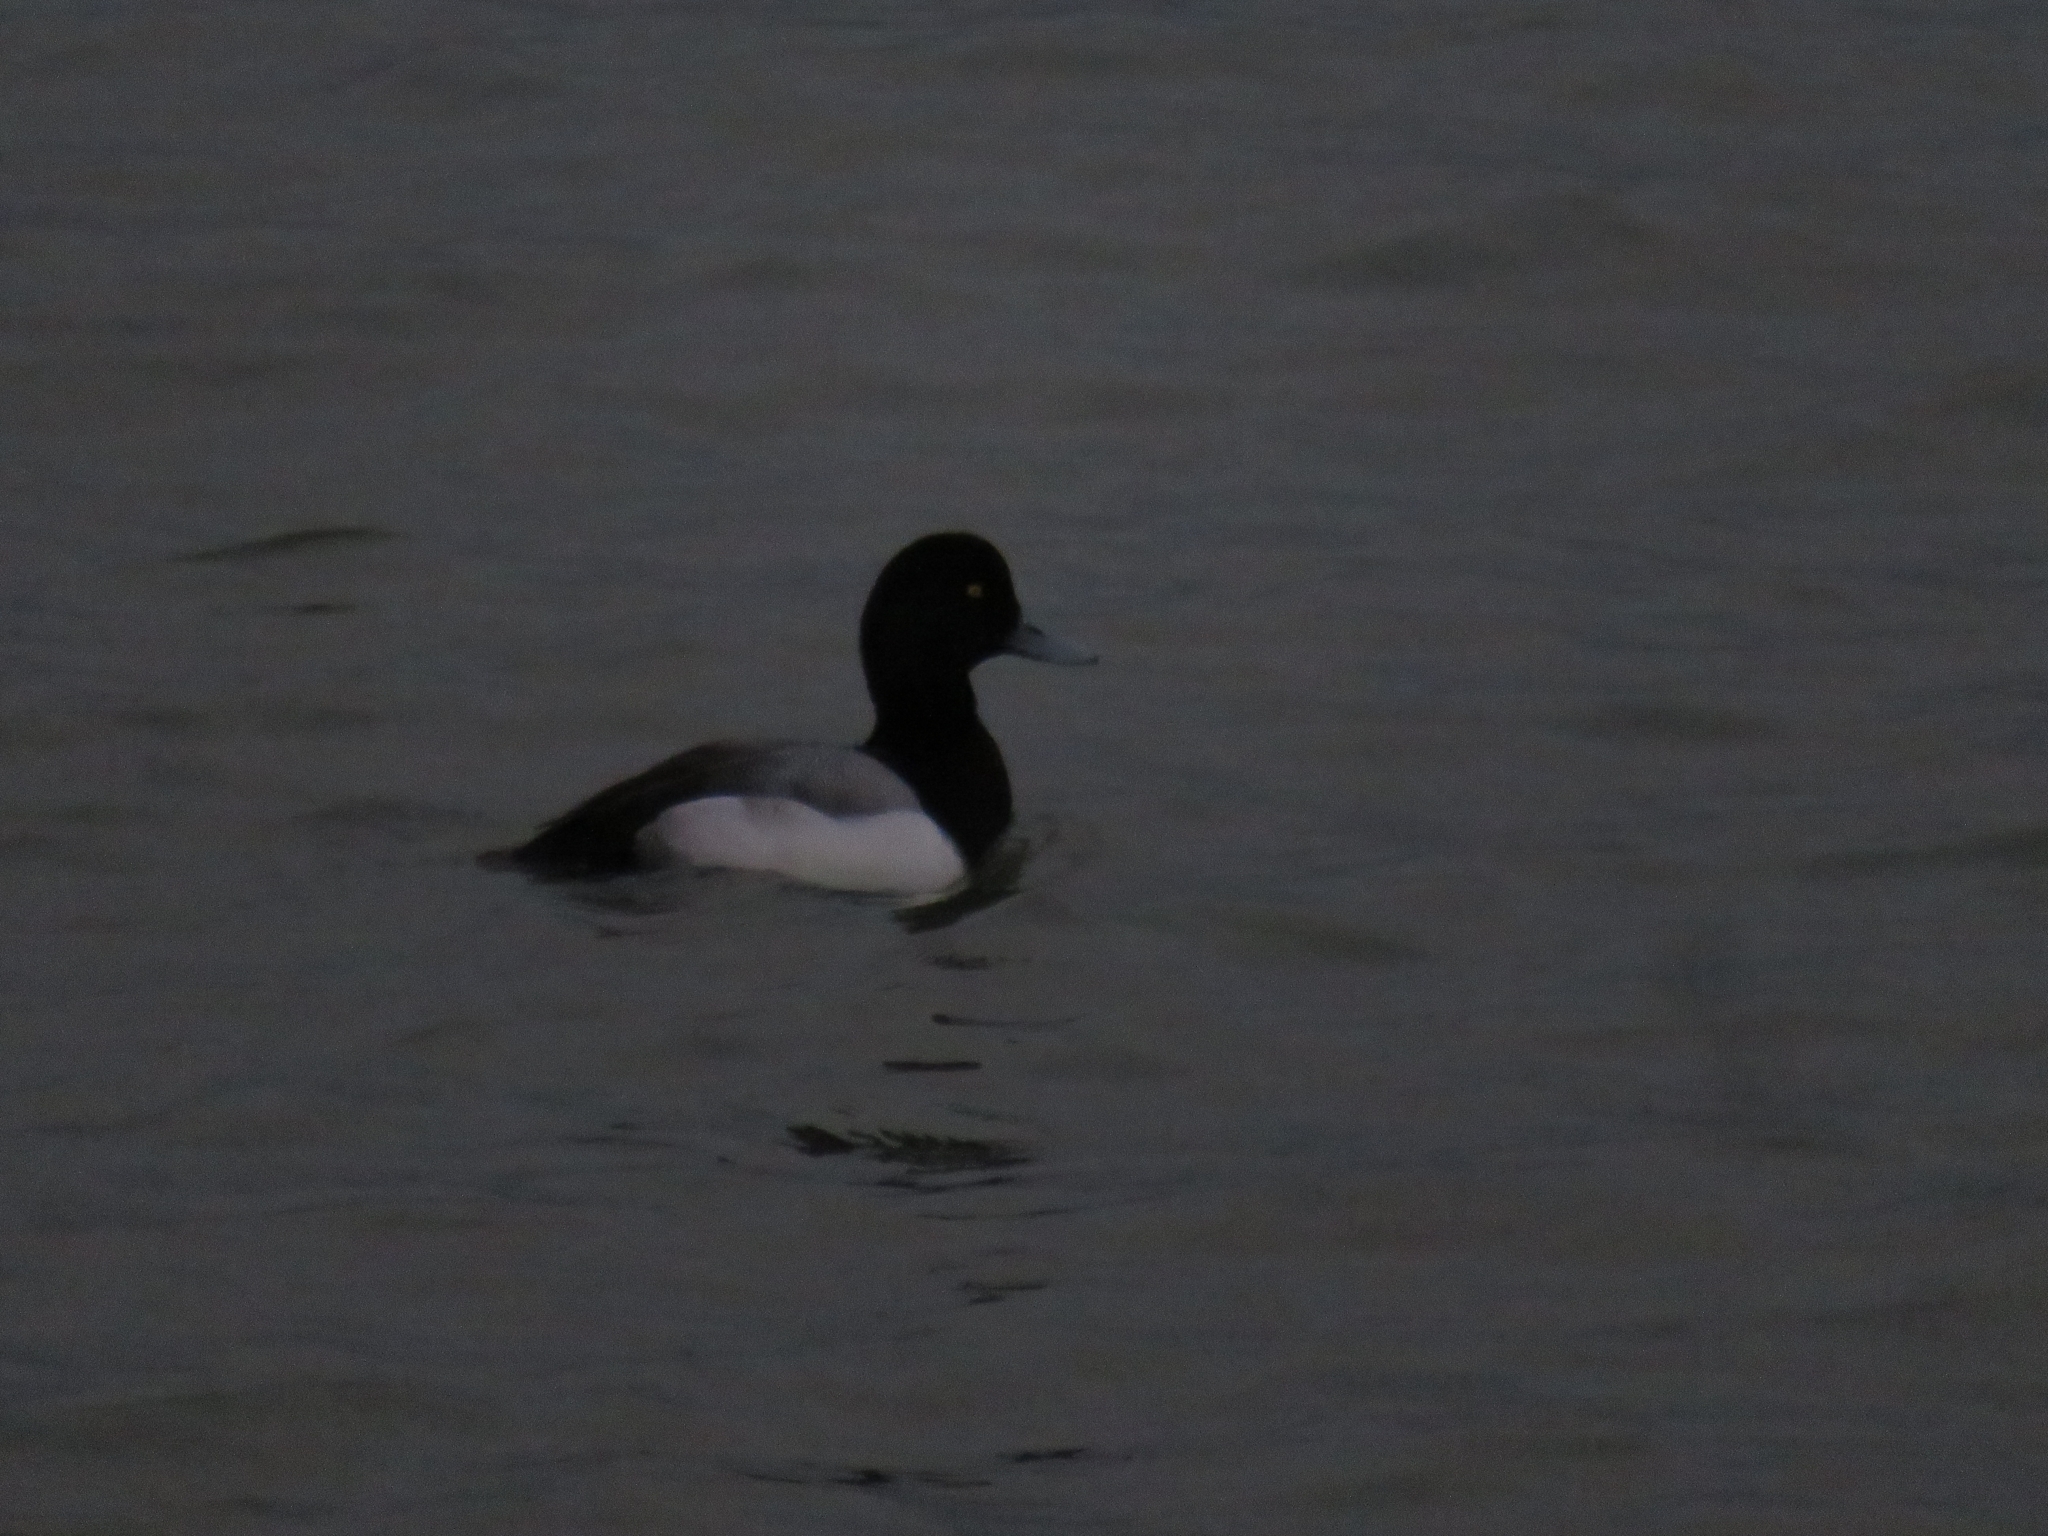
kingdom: Animalia
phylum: Chordata
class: Aves
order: Anseriformes
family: Anatidae
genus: Aythya
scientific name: Aythya marila
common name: Greater scaup
